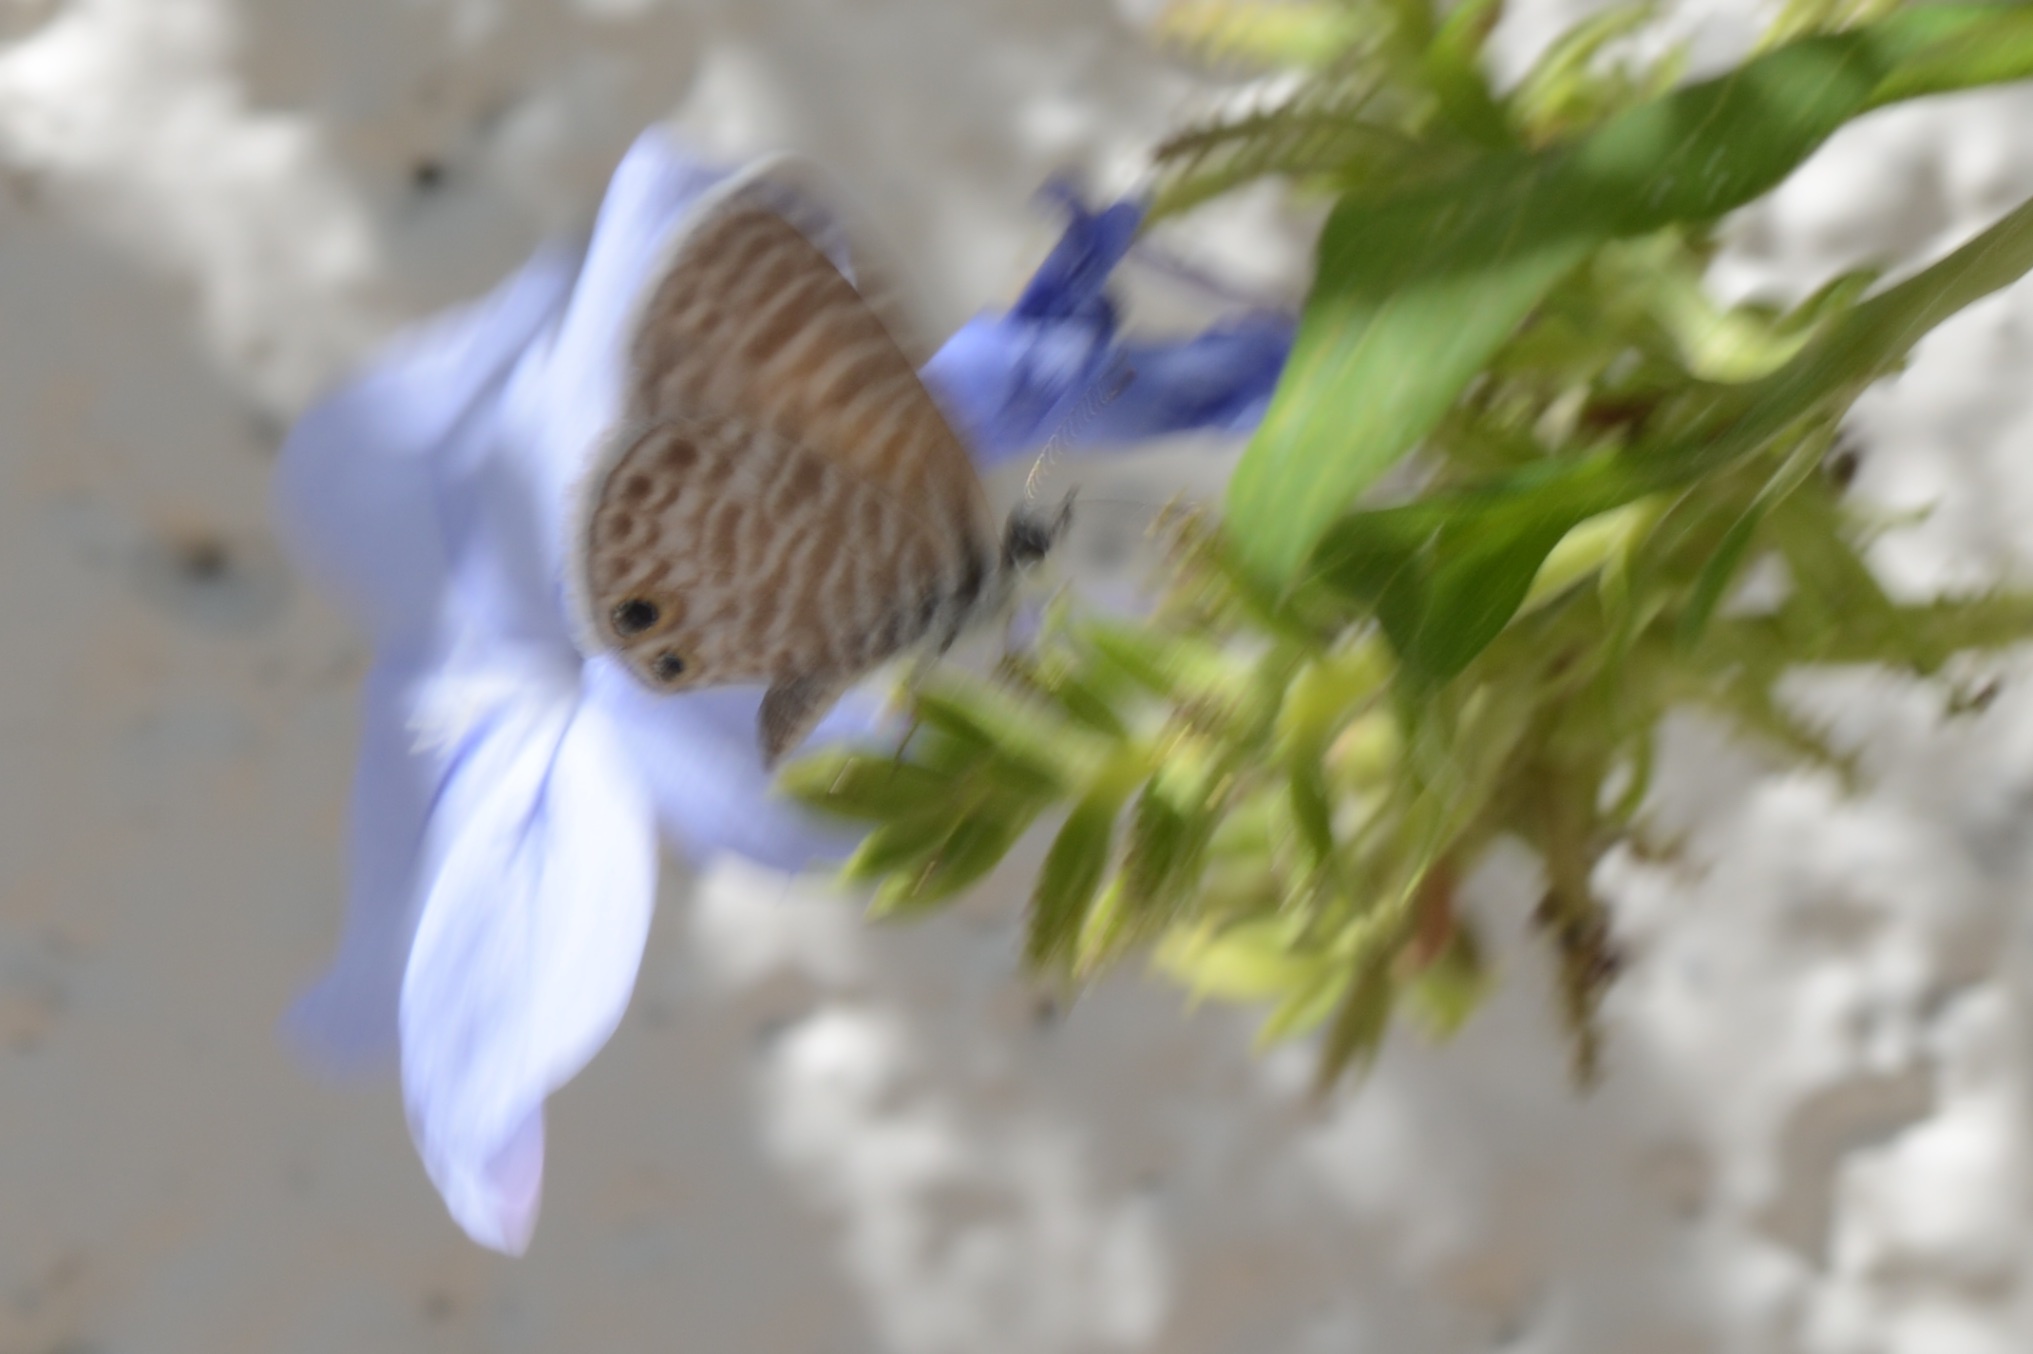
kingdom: Animalia
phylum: Arthropoda
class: Insecta
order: Lepidoptera
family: Lycaenidae
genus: Leptotes
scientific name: Leptotes marina
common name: Marine blue
